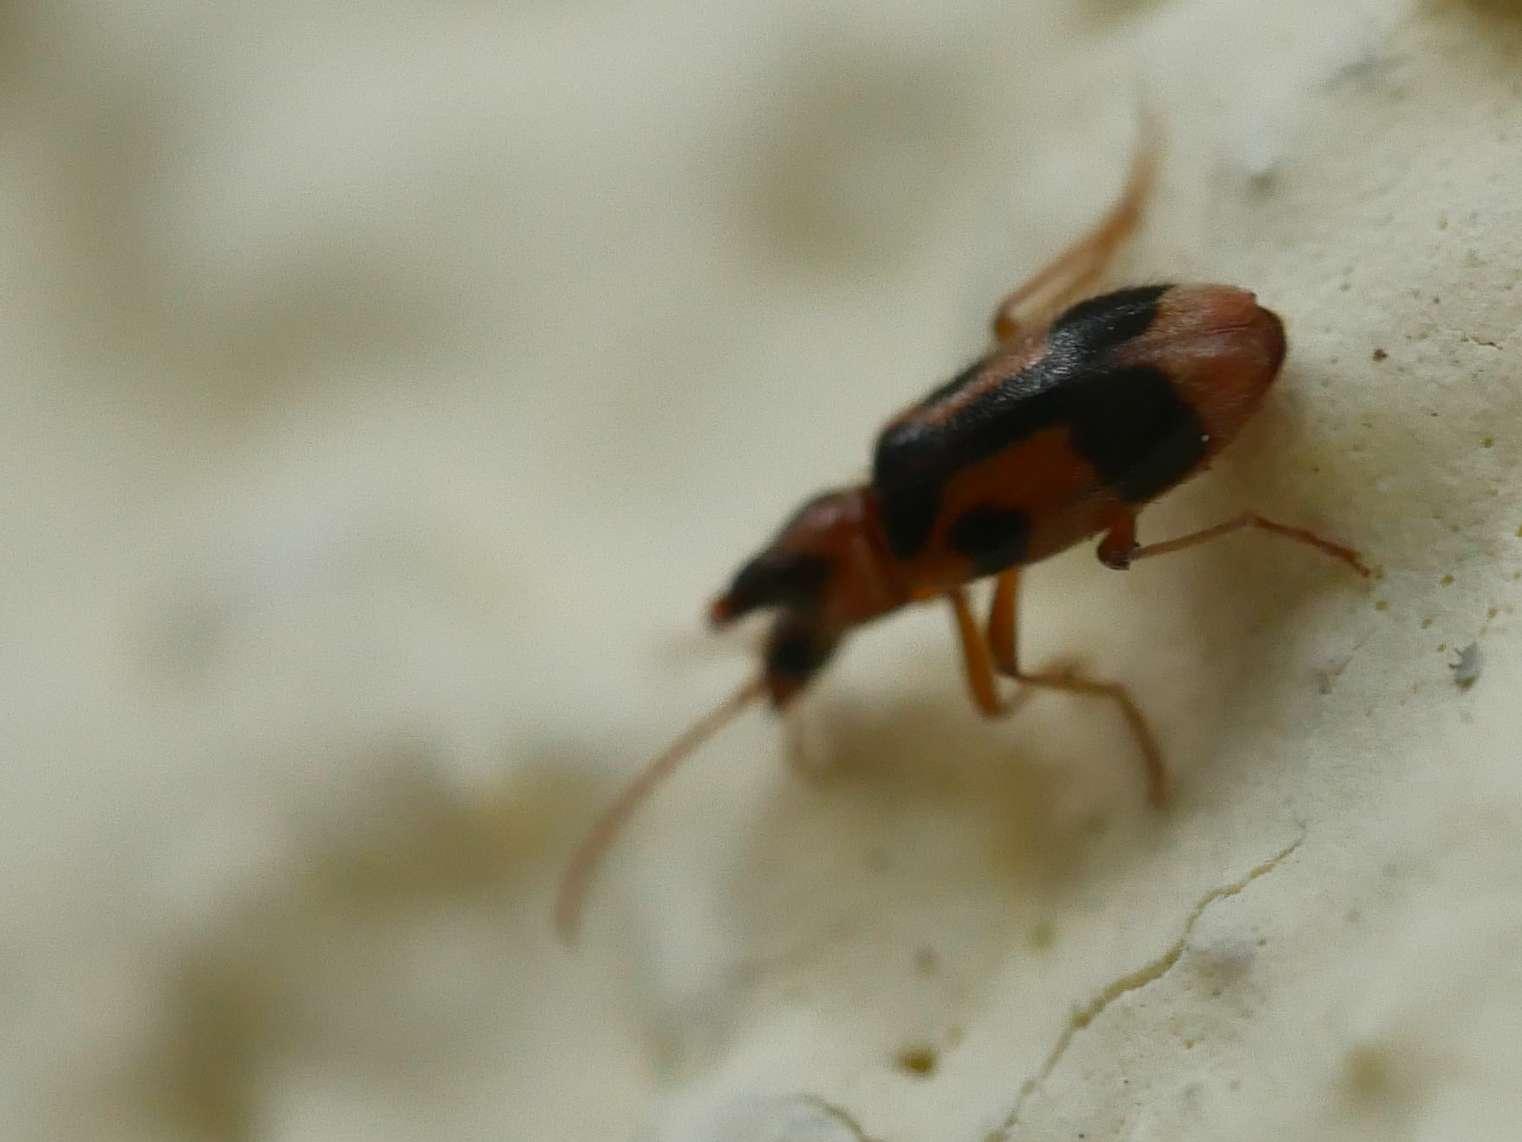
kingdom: Animalia
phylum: Arthropoda
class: Insecta
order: Coleoptera
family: Anthicidae
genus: Notoxus
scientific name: Notoxus monoceros
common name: Monoceros beetle
